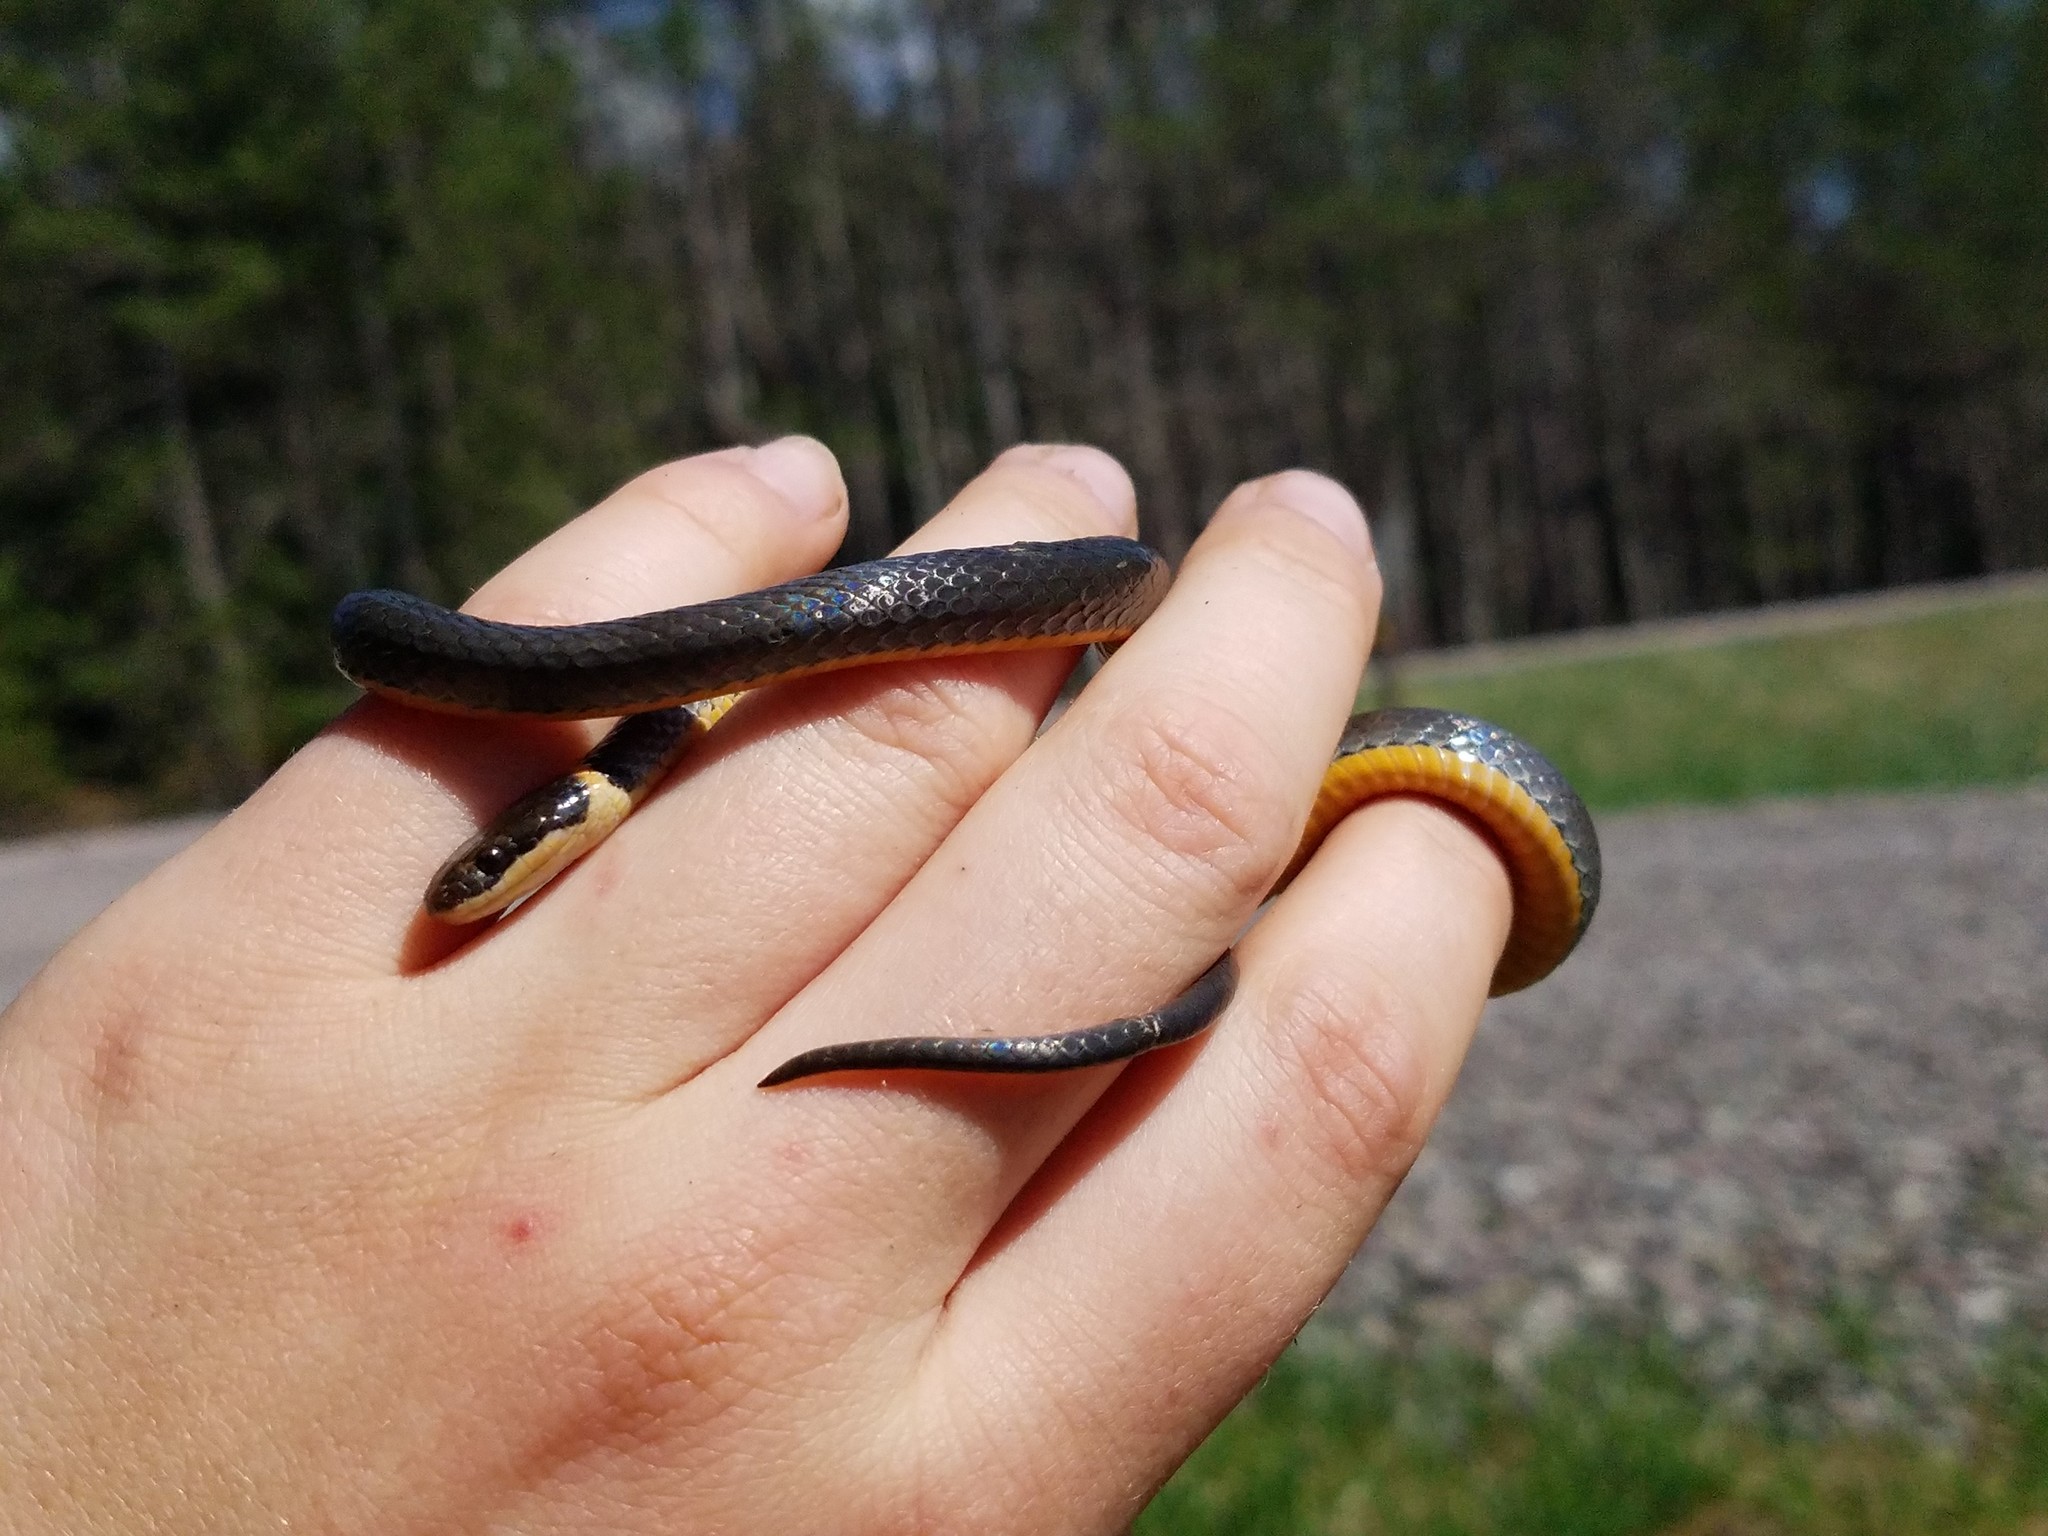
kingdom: Animalia
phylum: Chordata
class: Squamata
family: Colubridae
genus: Diadophis
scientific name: Diadophis punctatus
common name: Ringneck snake
